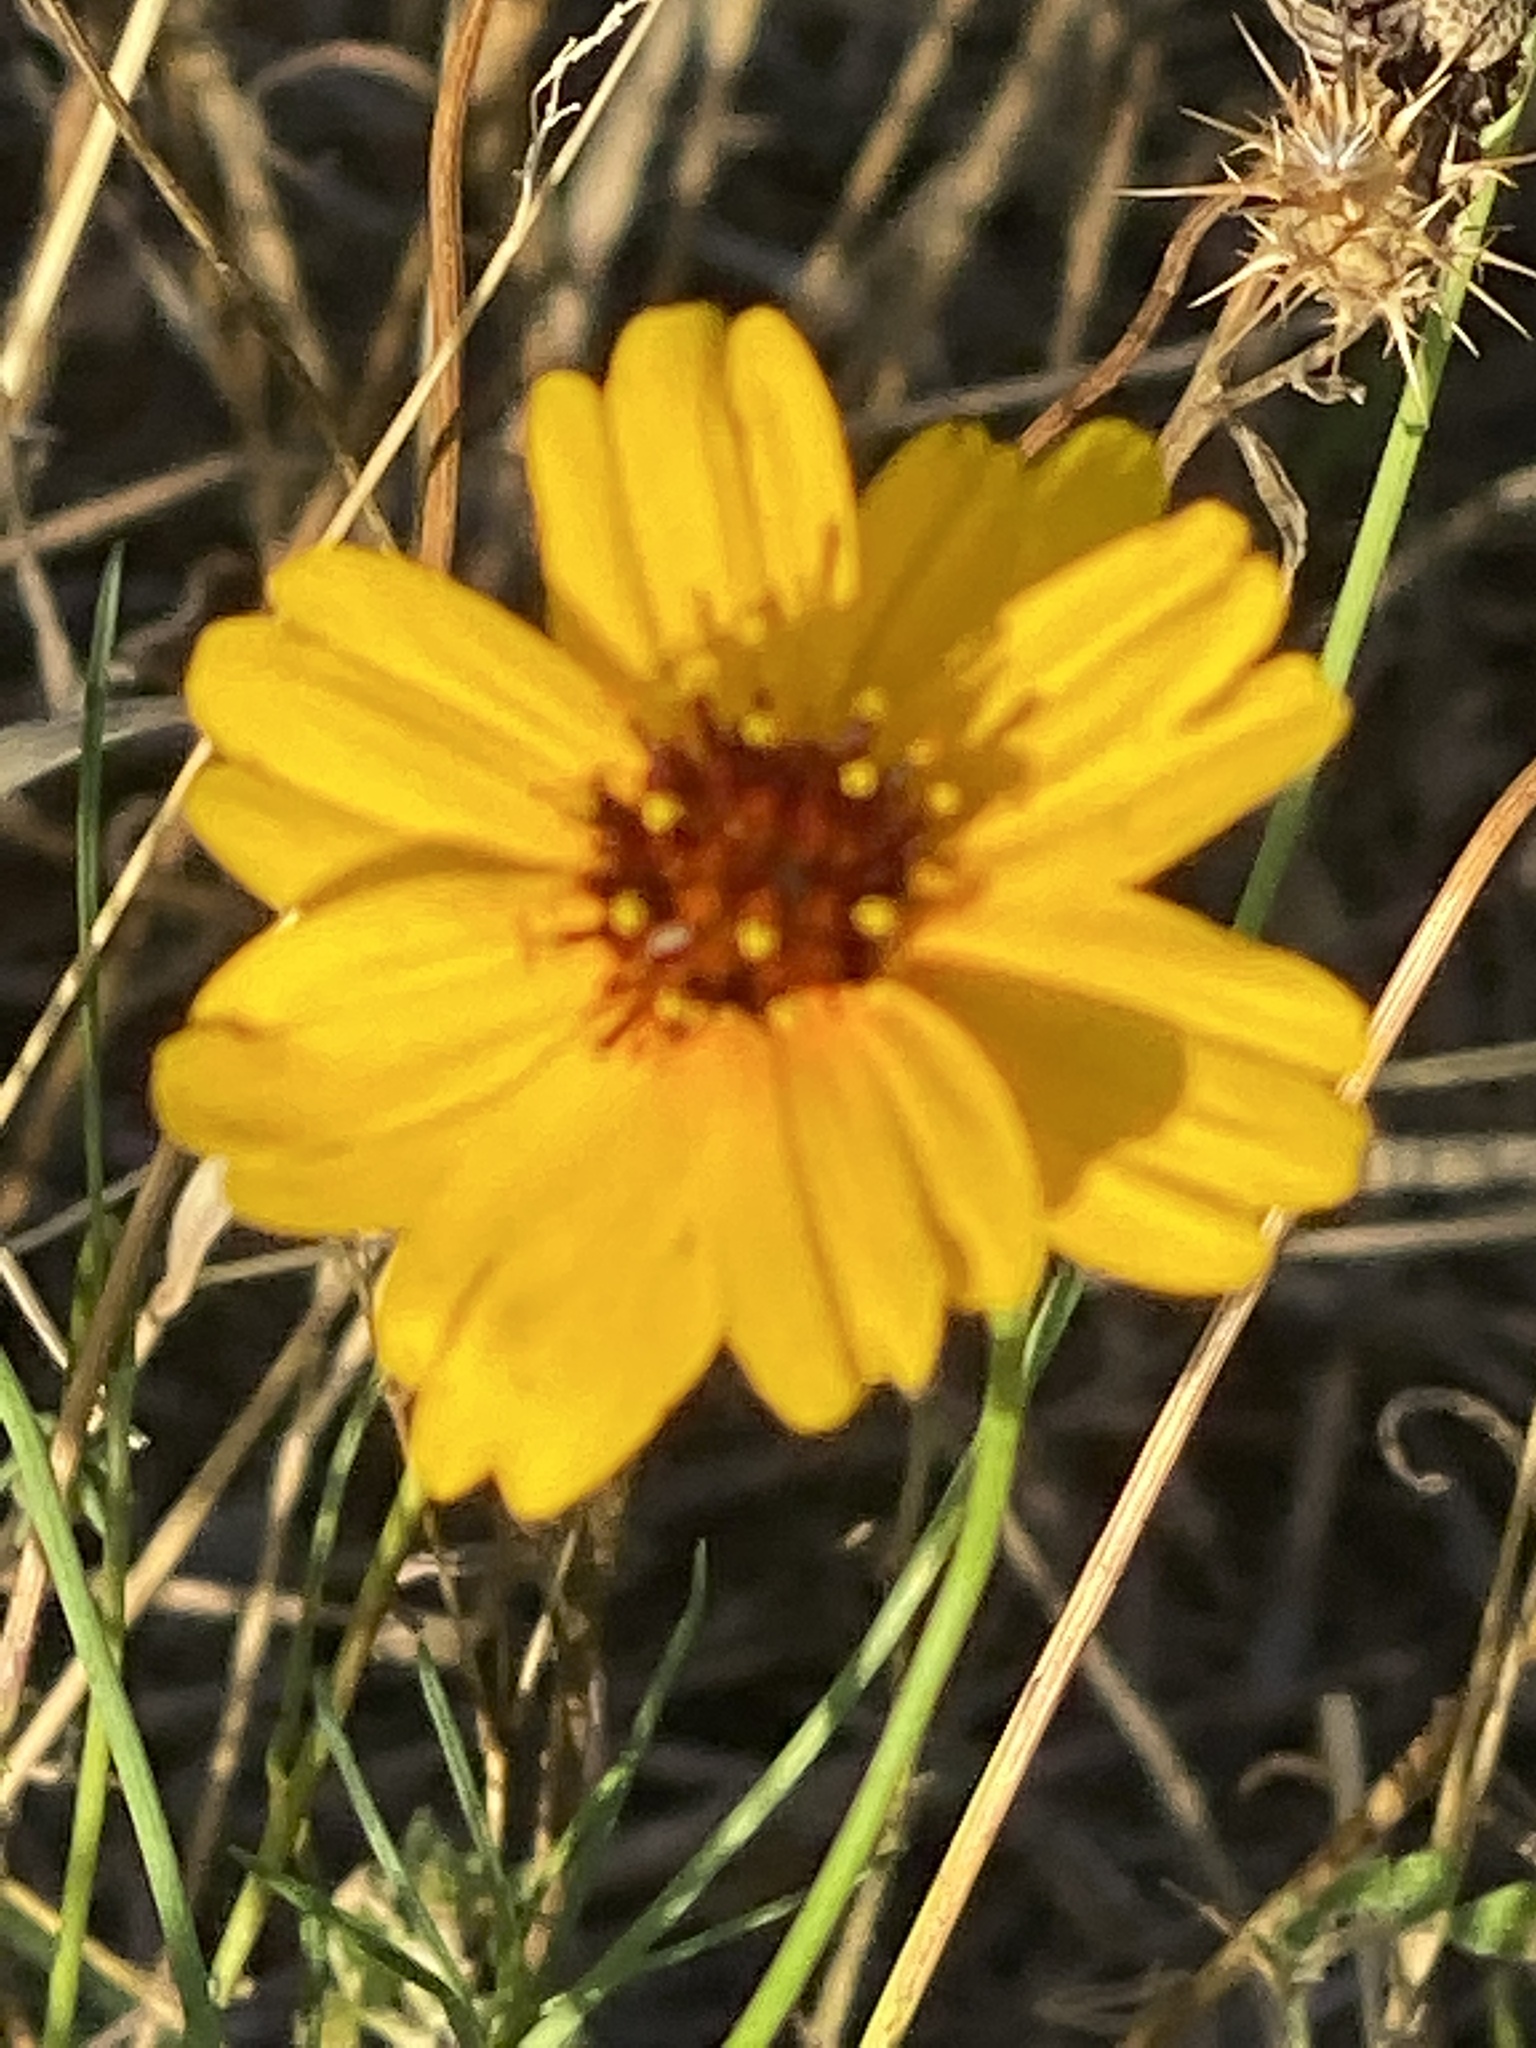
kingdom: Plantae
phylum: Tracheophyta
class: Magnoliopsida
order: Asterales
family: Asteraceae
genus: Thelesperma
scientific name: Thelesperma filifolium
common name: Stiff greenthread
